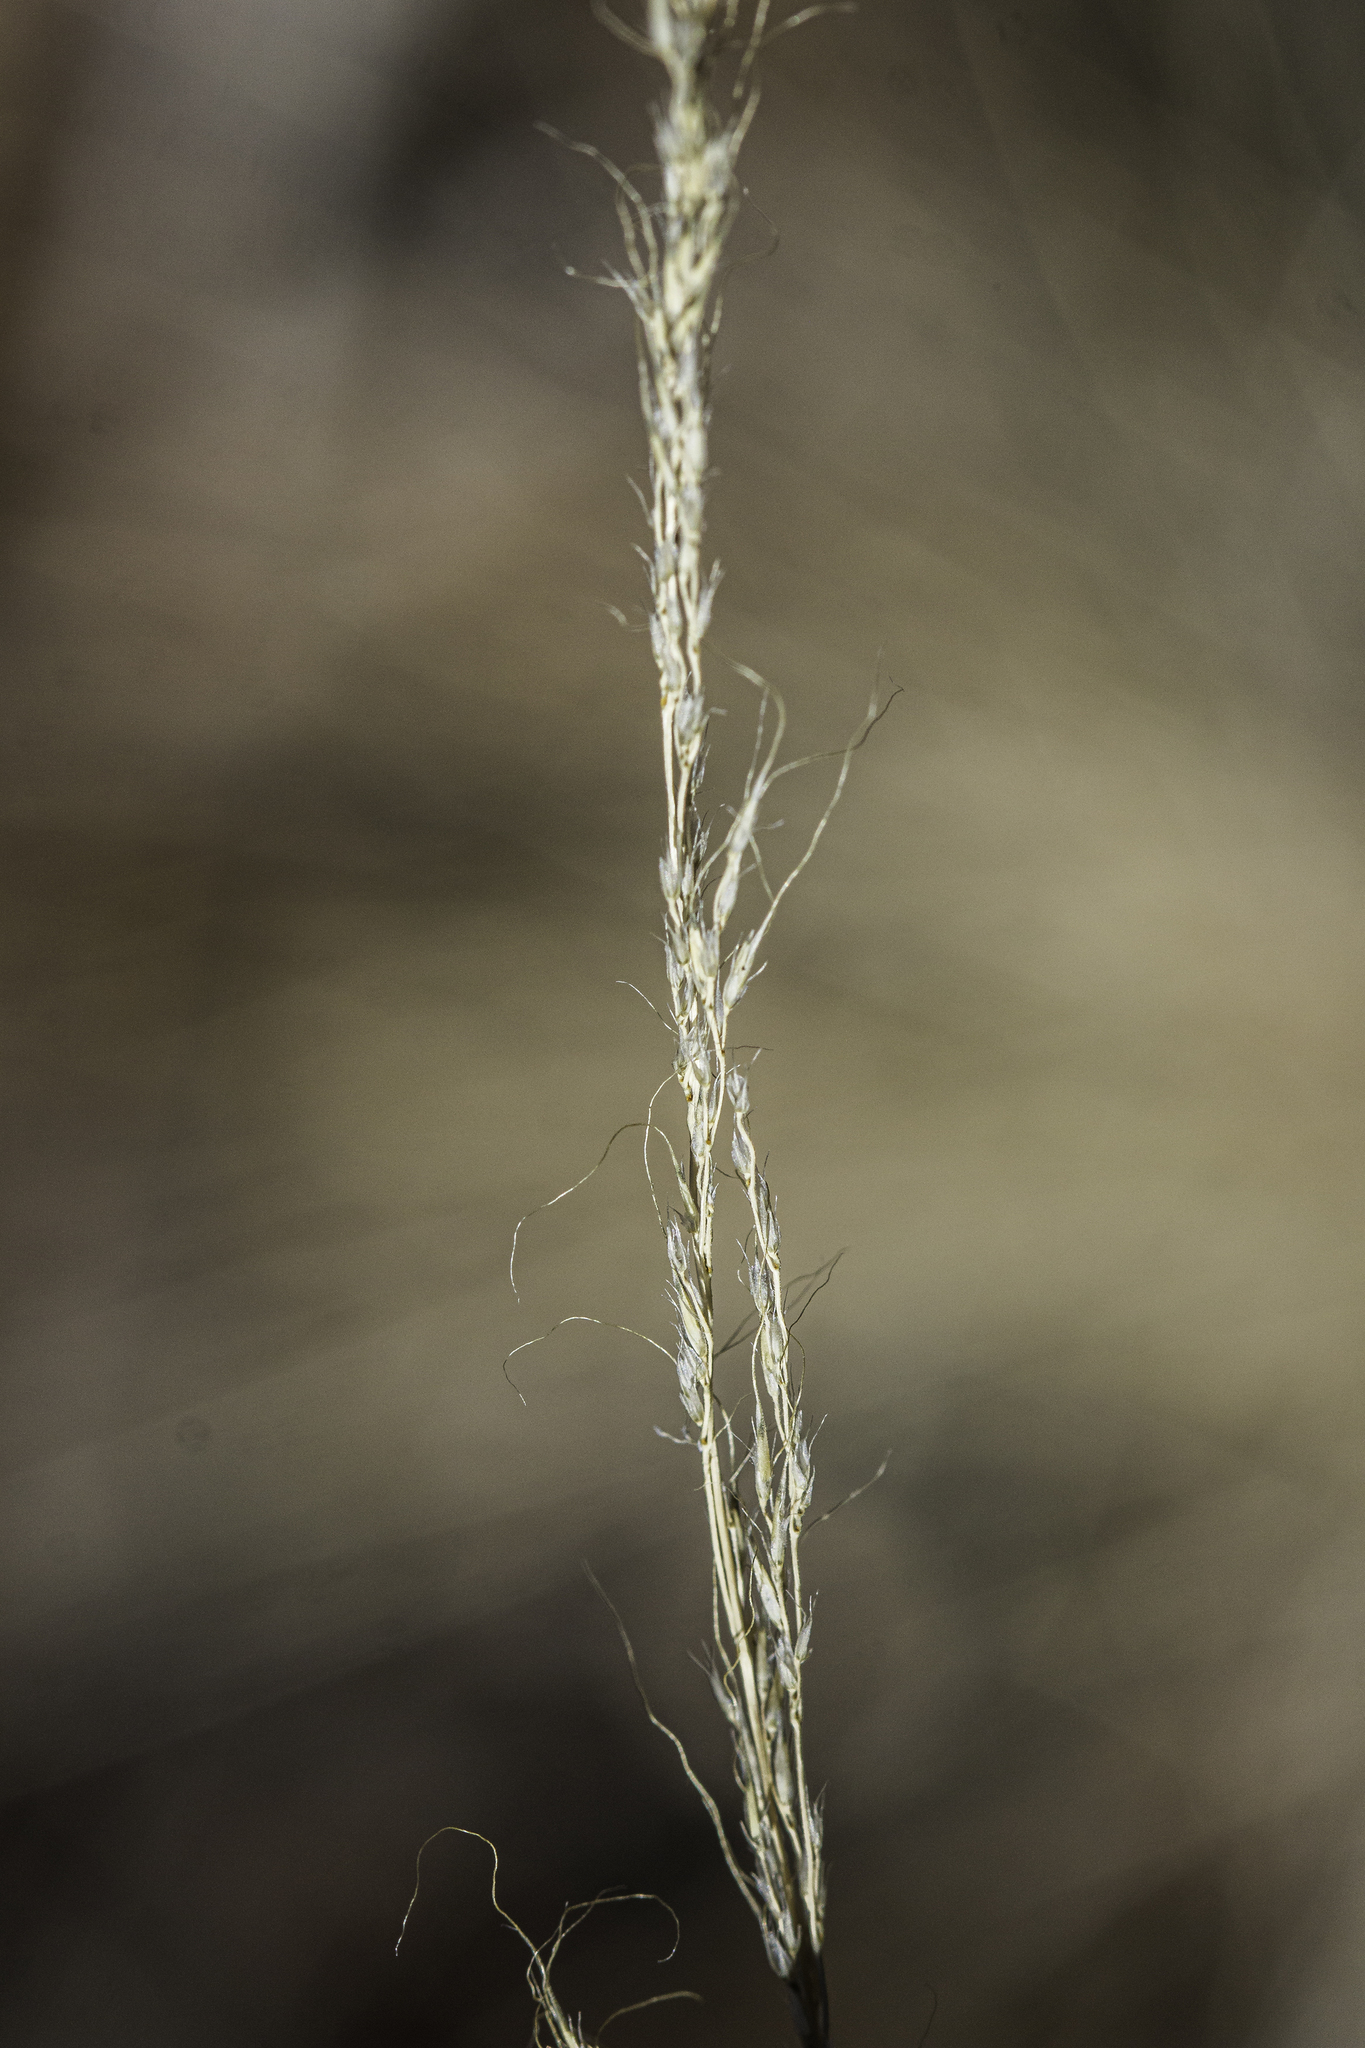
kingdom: Plantae
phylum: Tracheophyta
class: Liliopsida
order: Poales
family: Poaceae
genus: Muhlenbergia
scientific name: Muhlenbergia montana
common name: Mountain muhly
